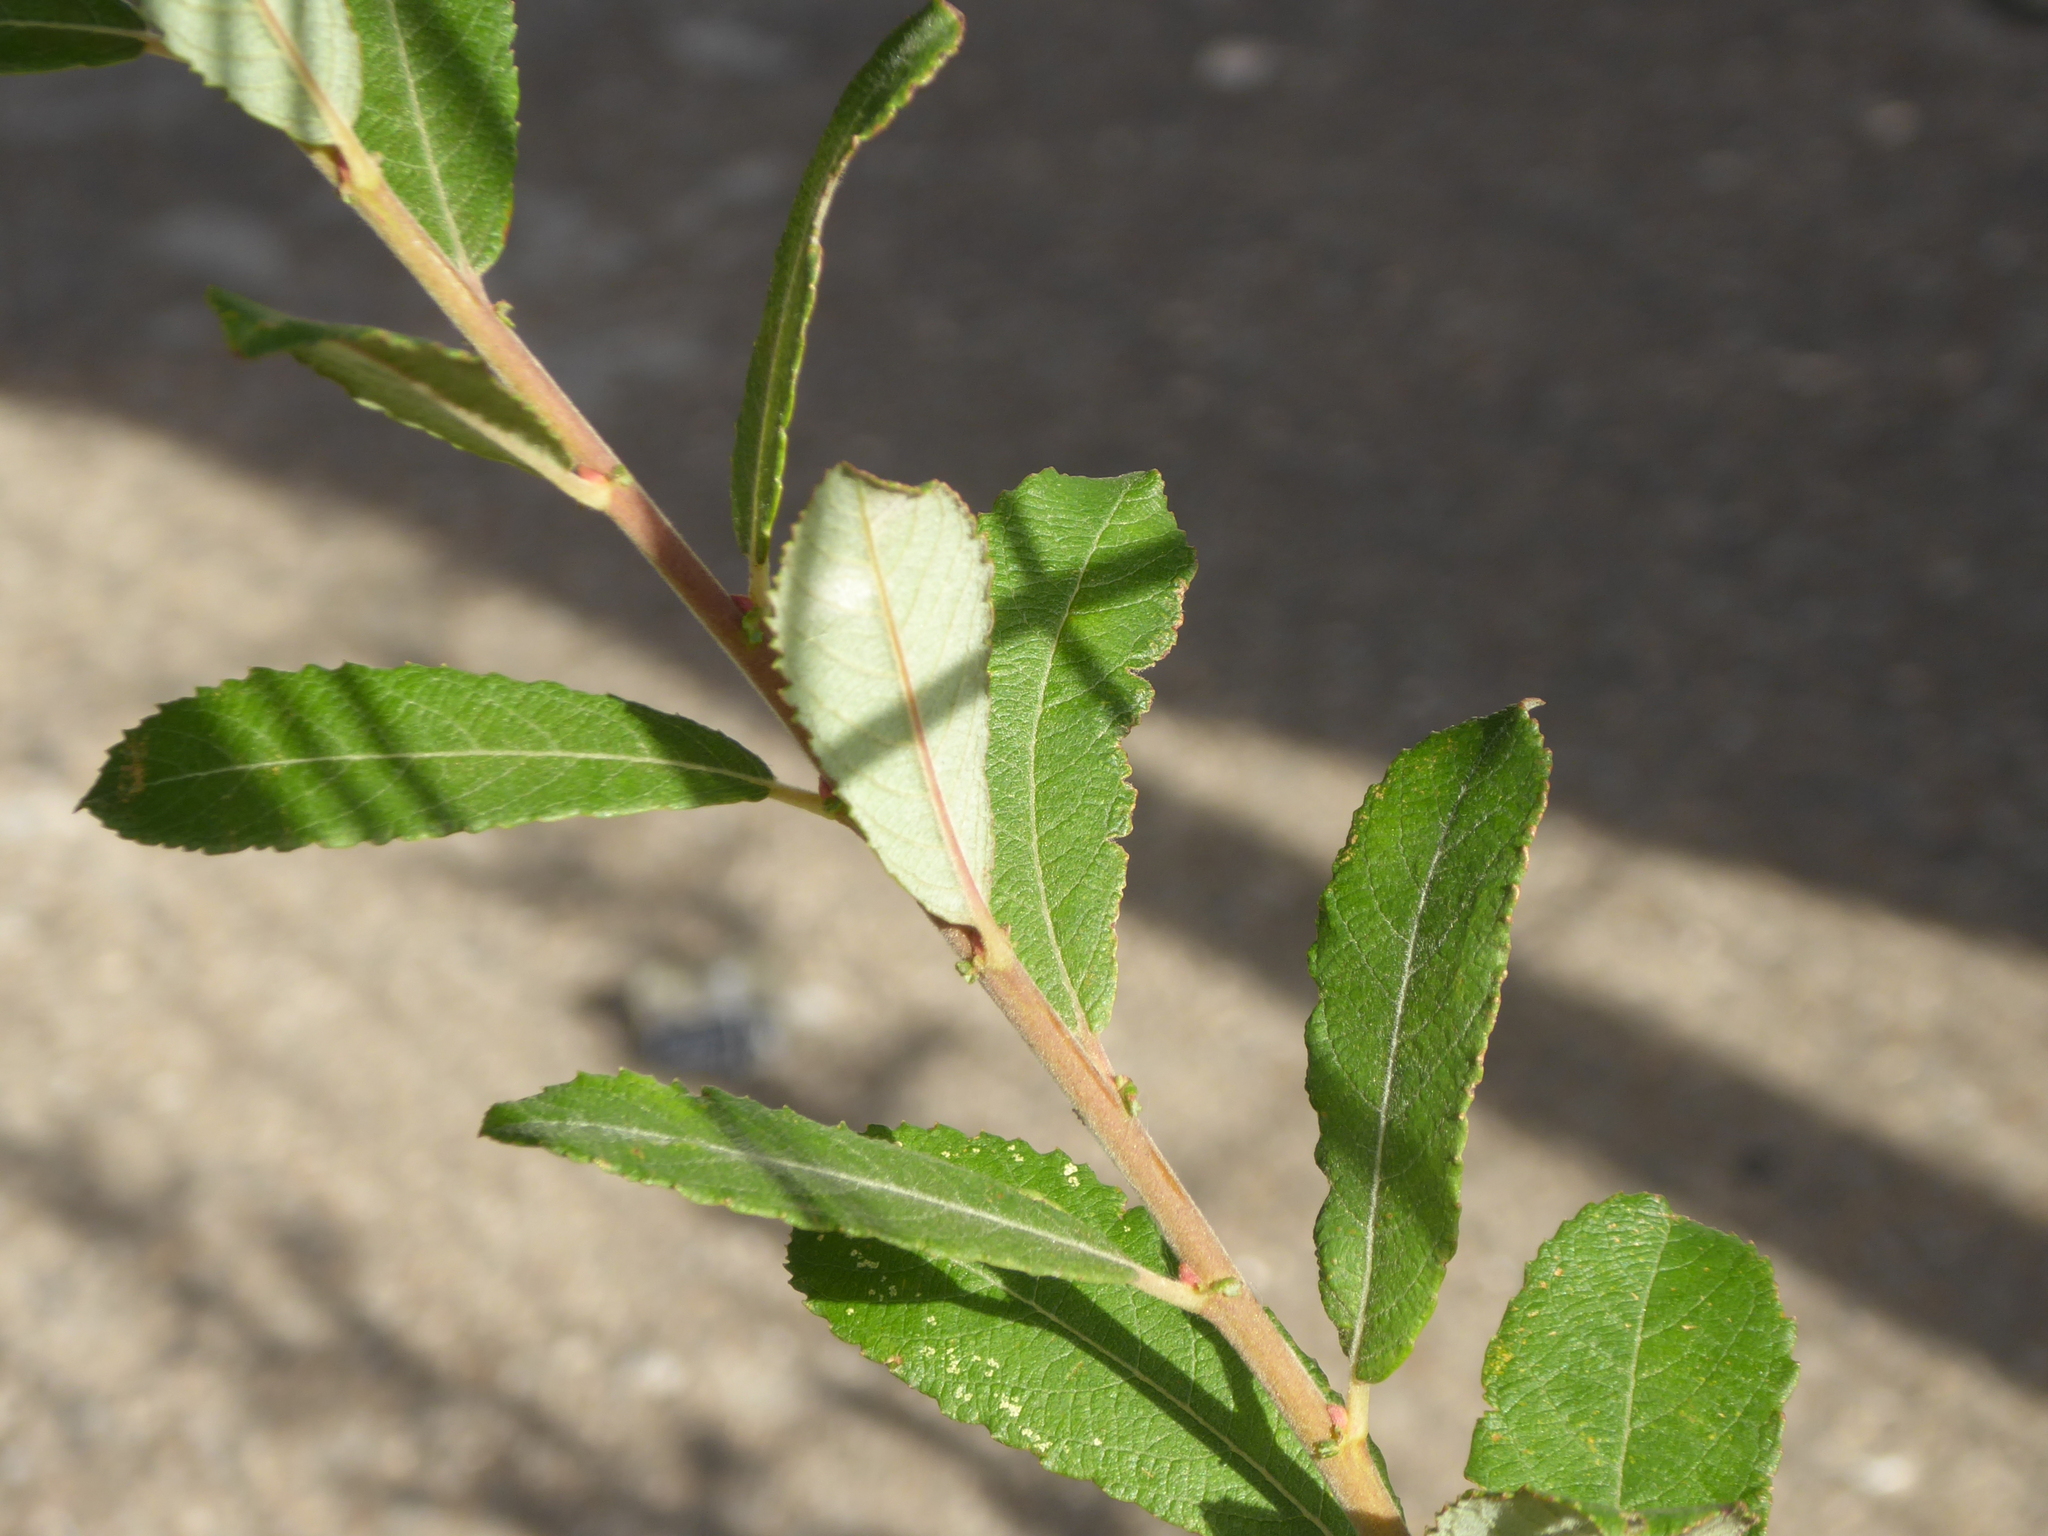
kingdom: Plantae
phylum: Tracheophyta
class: Magnoliopsida
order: Malpighiales
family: Salicaceae
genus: Salix
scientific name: Salix atrocinerea
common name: Rusty willow
